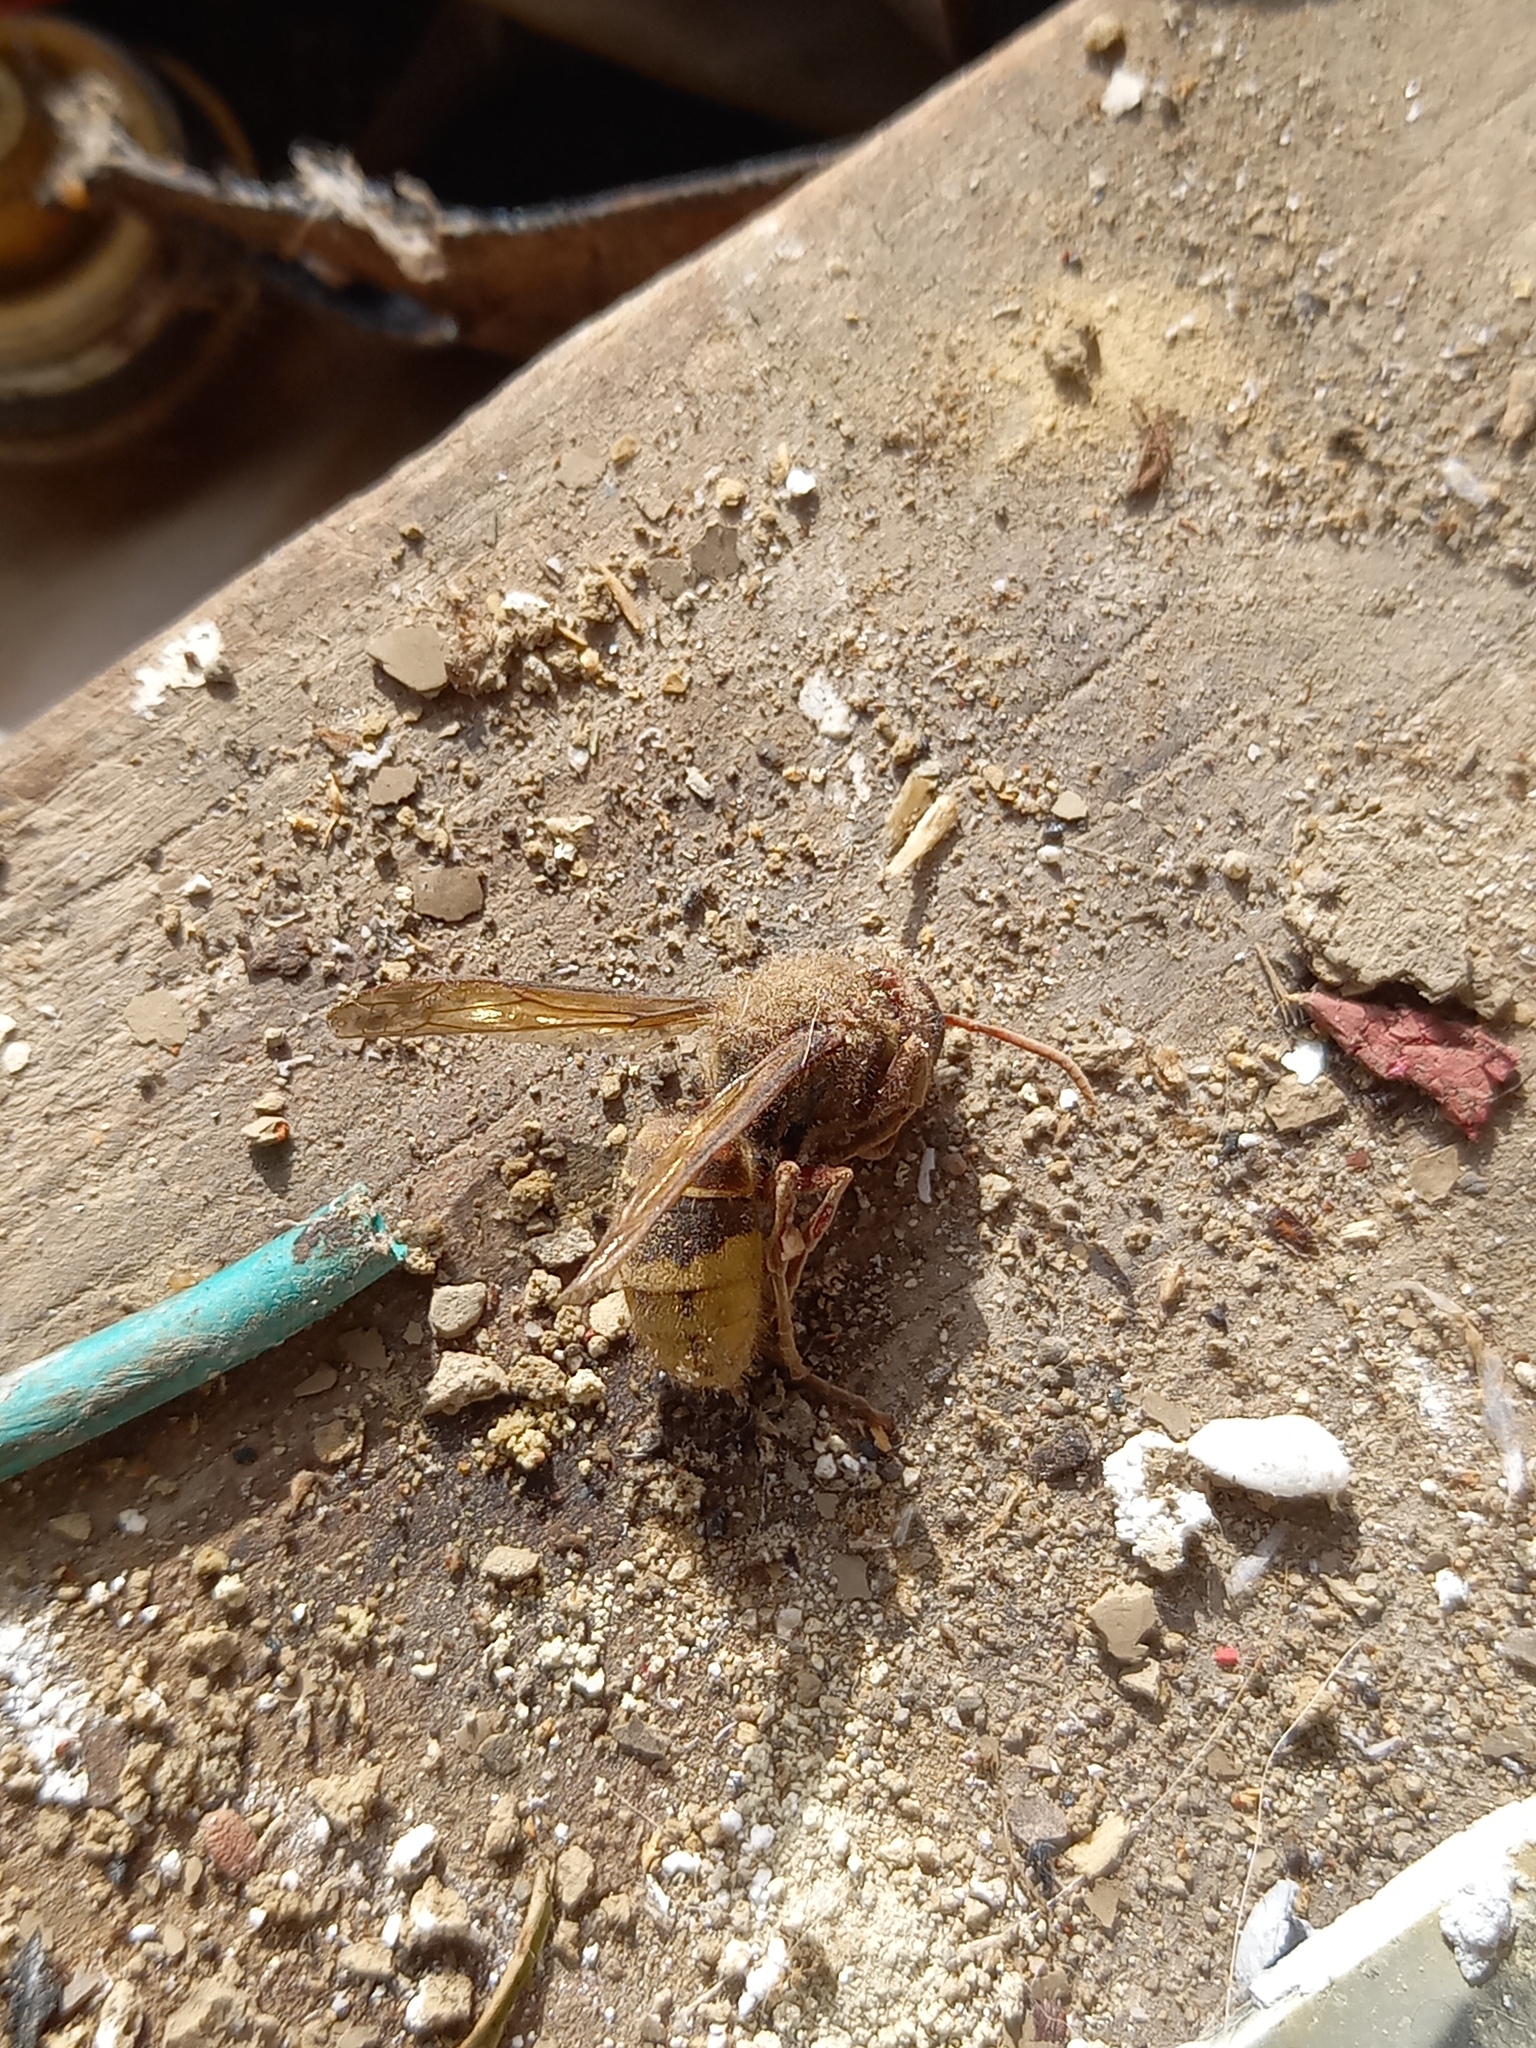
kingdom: Animalia
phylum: Arthropoda
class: Insecta
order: Hymenoptera
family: Vespidae
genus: Vespa
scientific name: Vespa crabro
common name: Hornet
